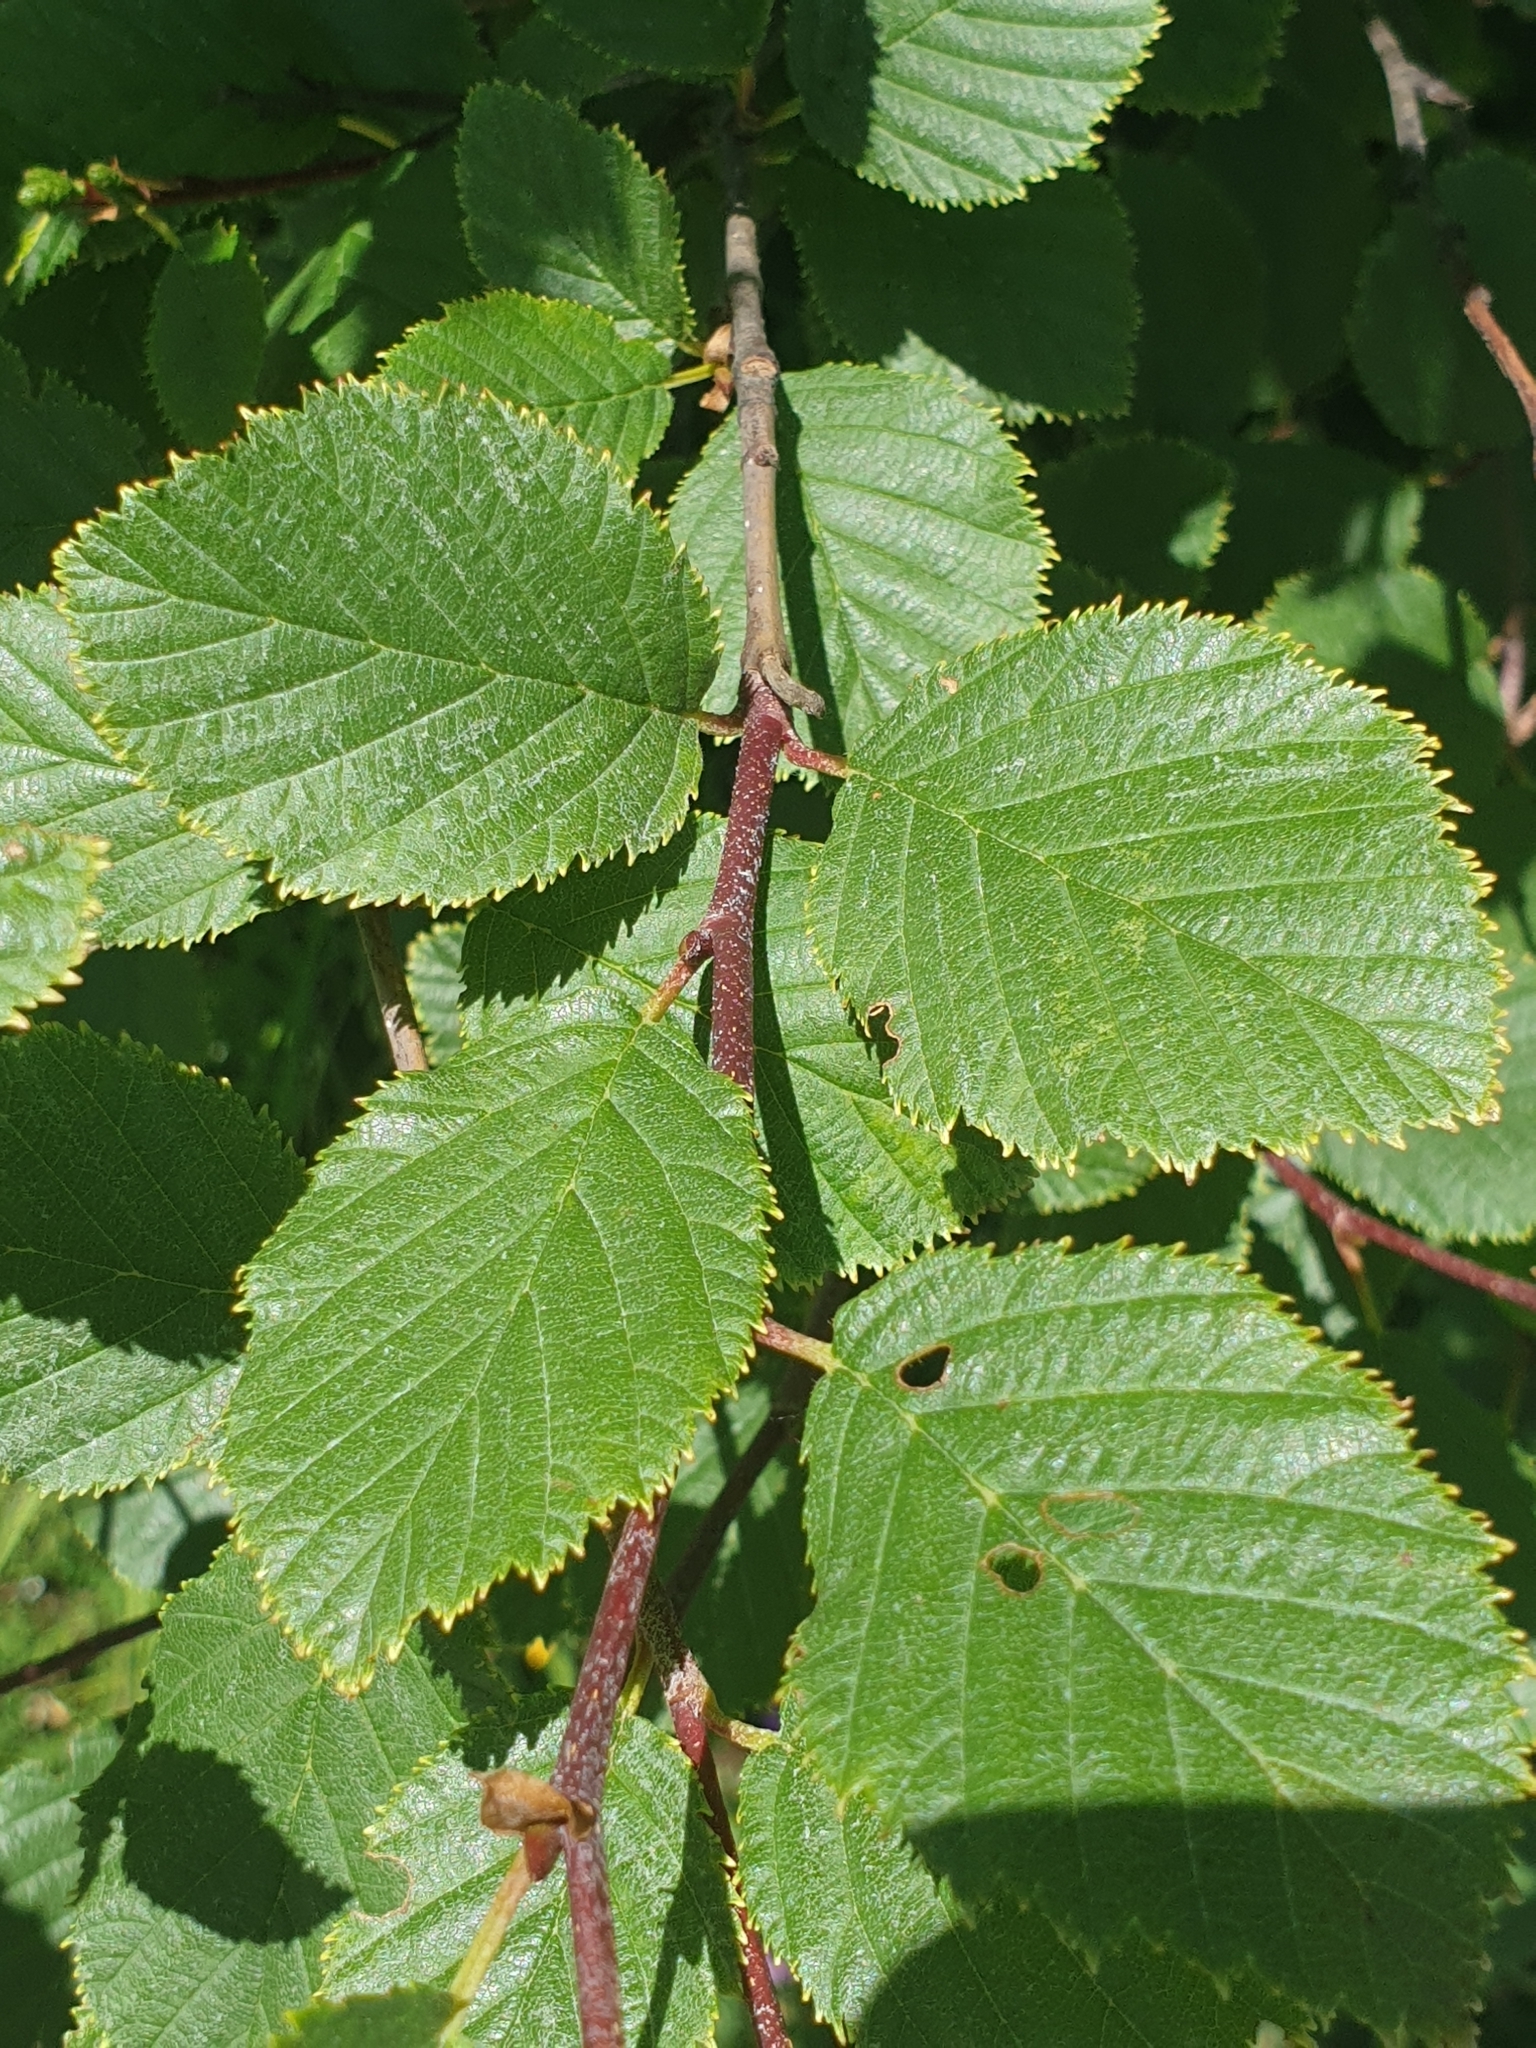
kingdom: Plantae
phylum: Tracheophyta
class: Magnoliopsida
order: Fagales
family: Betulaceae
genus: Alnus
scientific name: Alnus alnobetula
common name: Green alder
